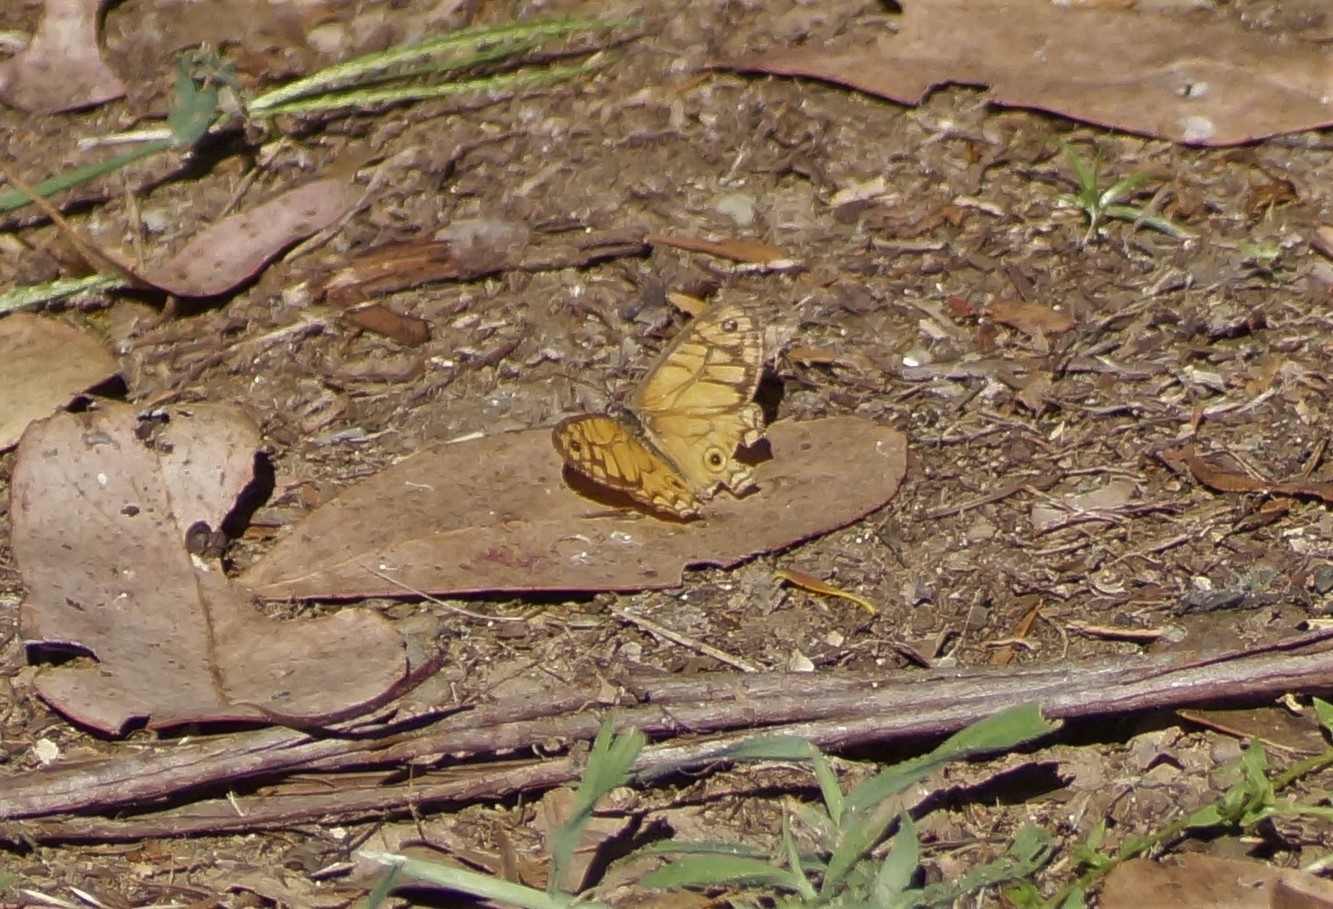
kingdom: Animalia
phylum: Arthropoda
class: Insecta
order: Lepidoptera
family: Nymphalidae
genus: Geitoneura
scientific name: Geitoneura acantha
